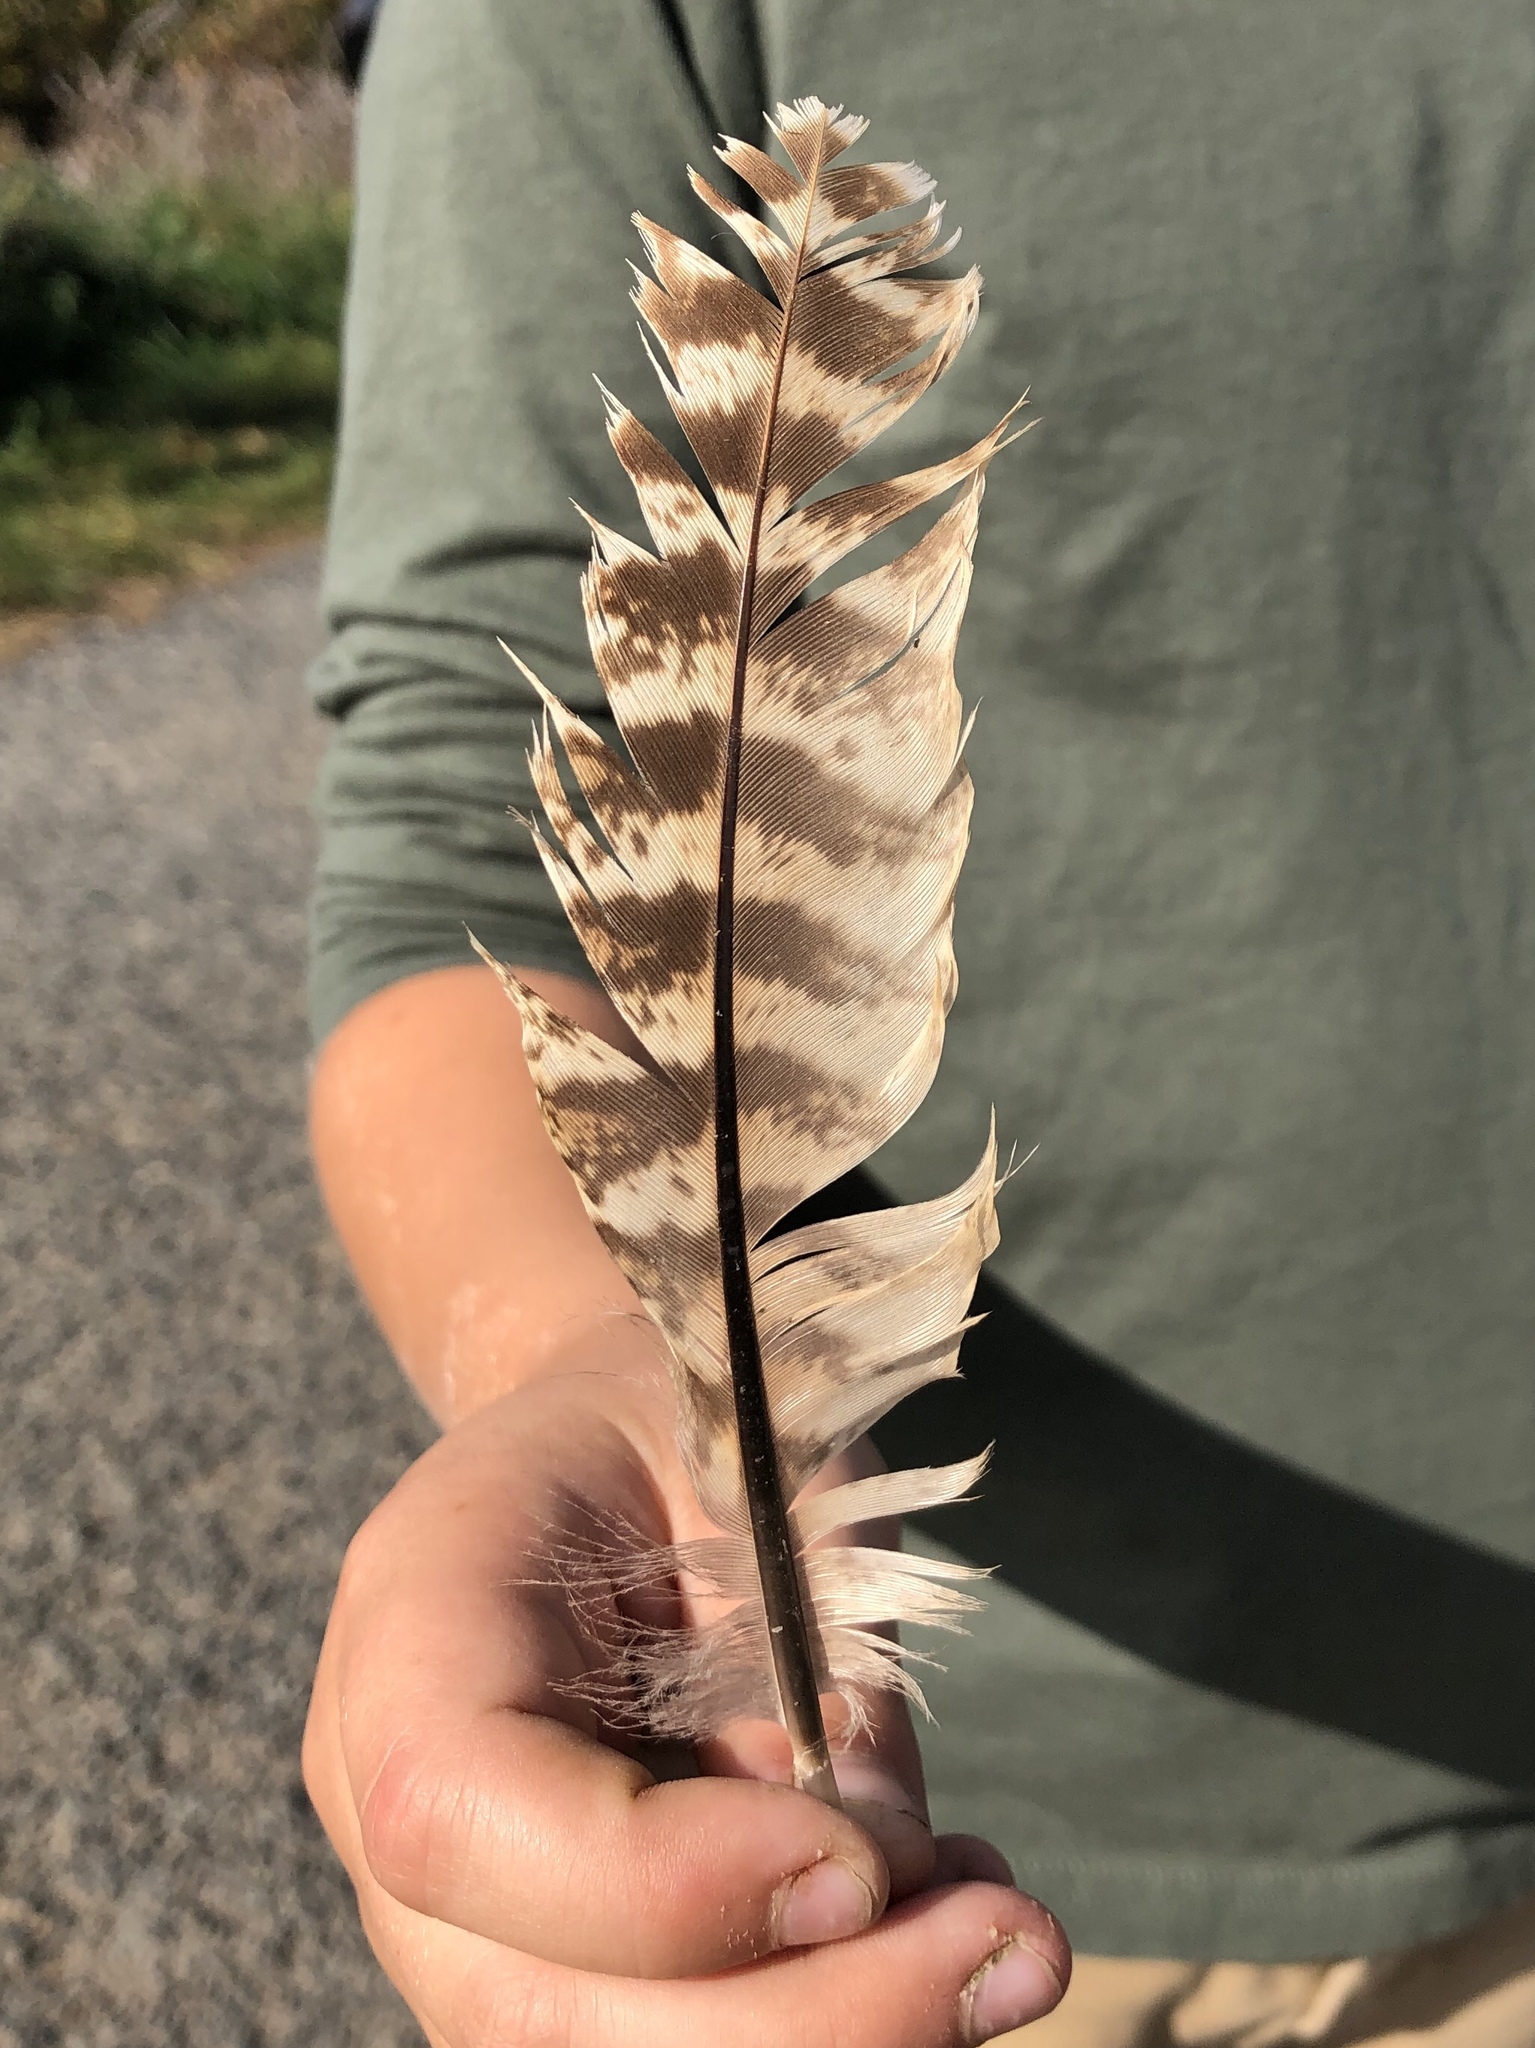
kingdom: Animalia
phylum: Chordata
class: Aves
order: Galliformes
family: Phasianidae
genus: Phasianus
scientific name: Phasianus colchicus
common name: Common pheasant
